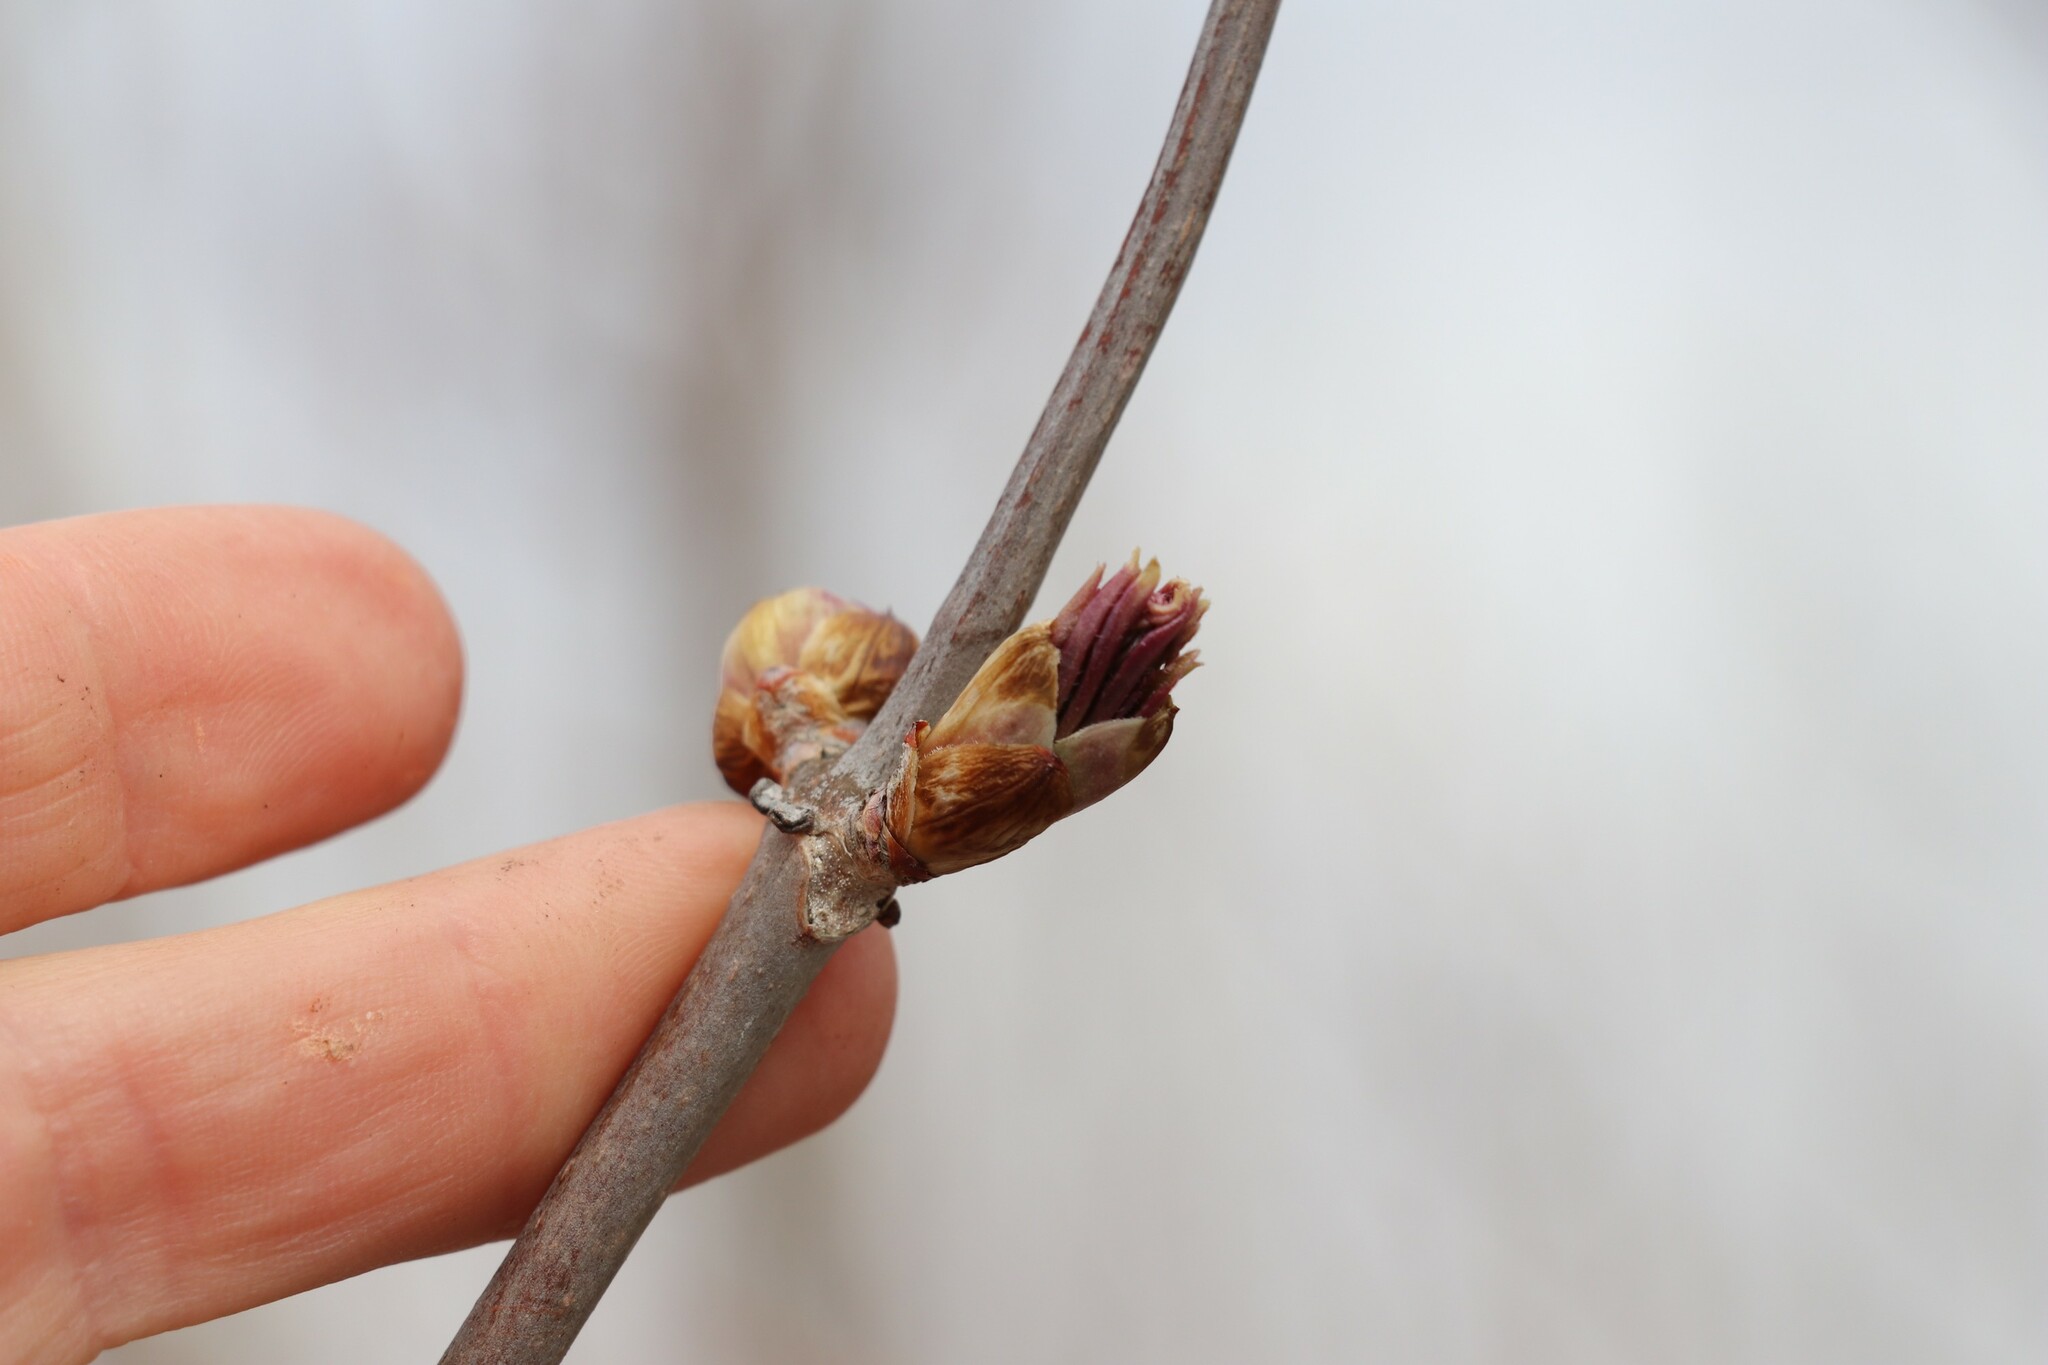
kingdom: Plantae
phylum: Tracheophyta
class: Magnoliopsida
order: Dipsacales
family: Viburnaceae
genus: Sambucus
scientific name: Sambucus sibirica
